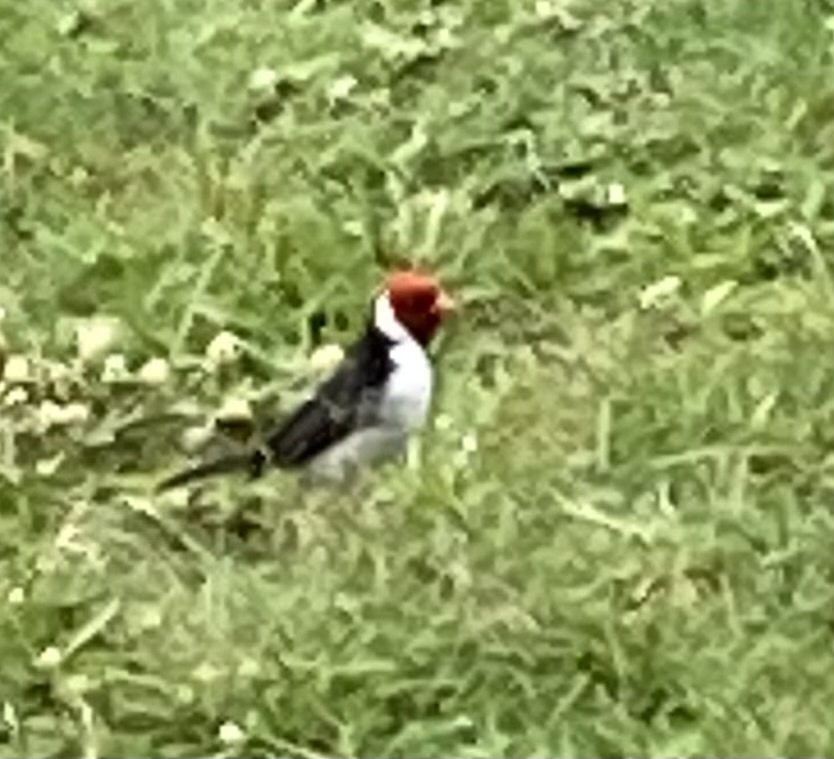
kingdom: Animalia
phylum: Chordata
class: Aves
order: Passeriformes
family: Thraupidae
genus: Paroaria
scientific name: Paroaria capitata
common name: Yellow-billed cardinal
